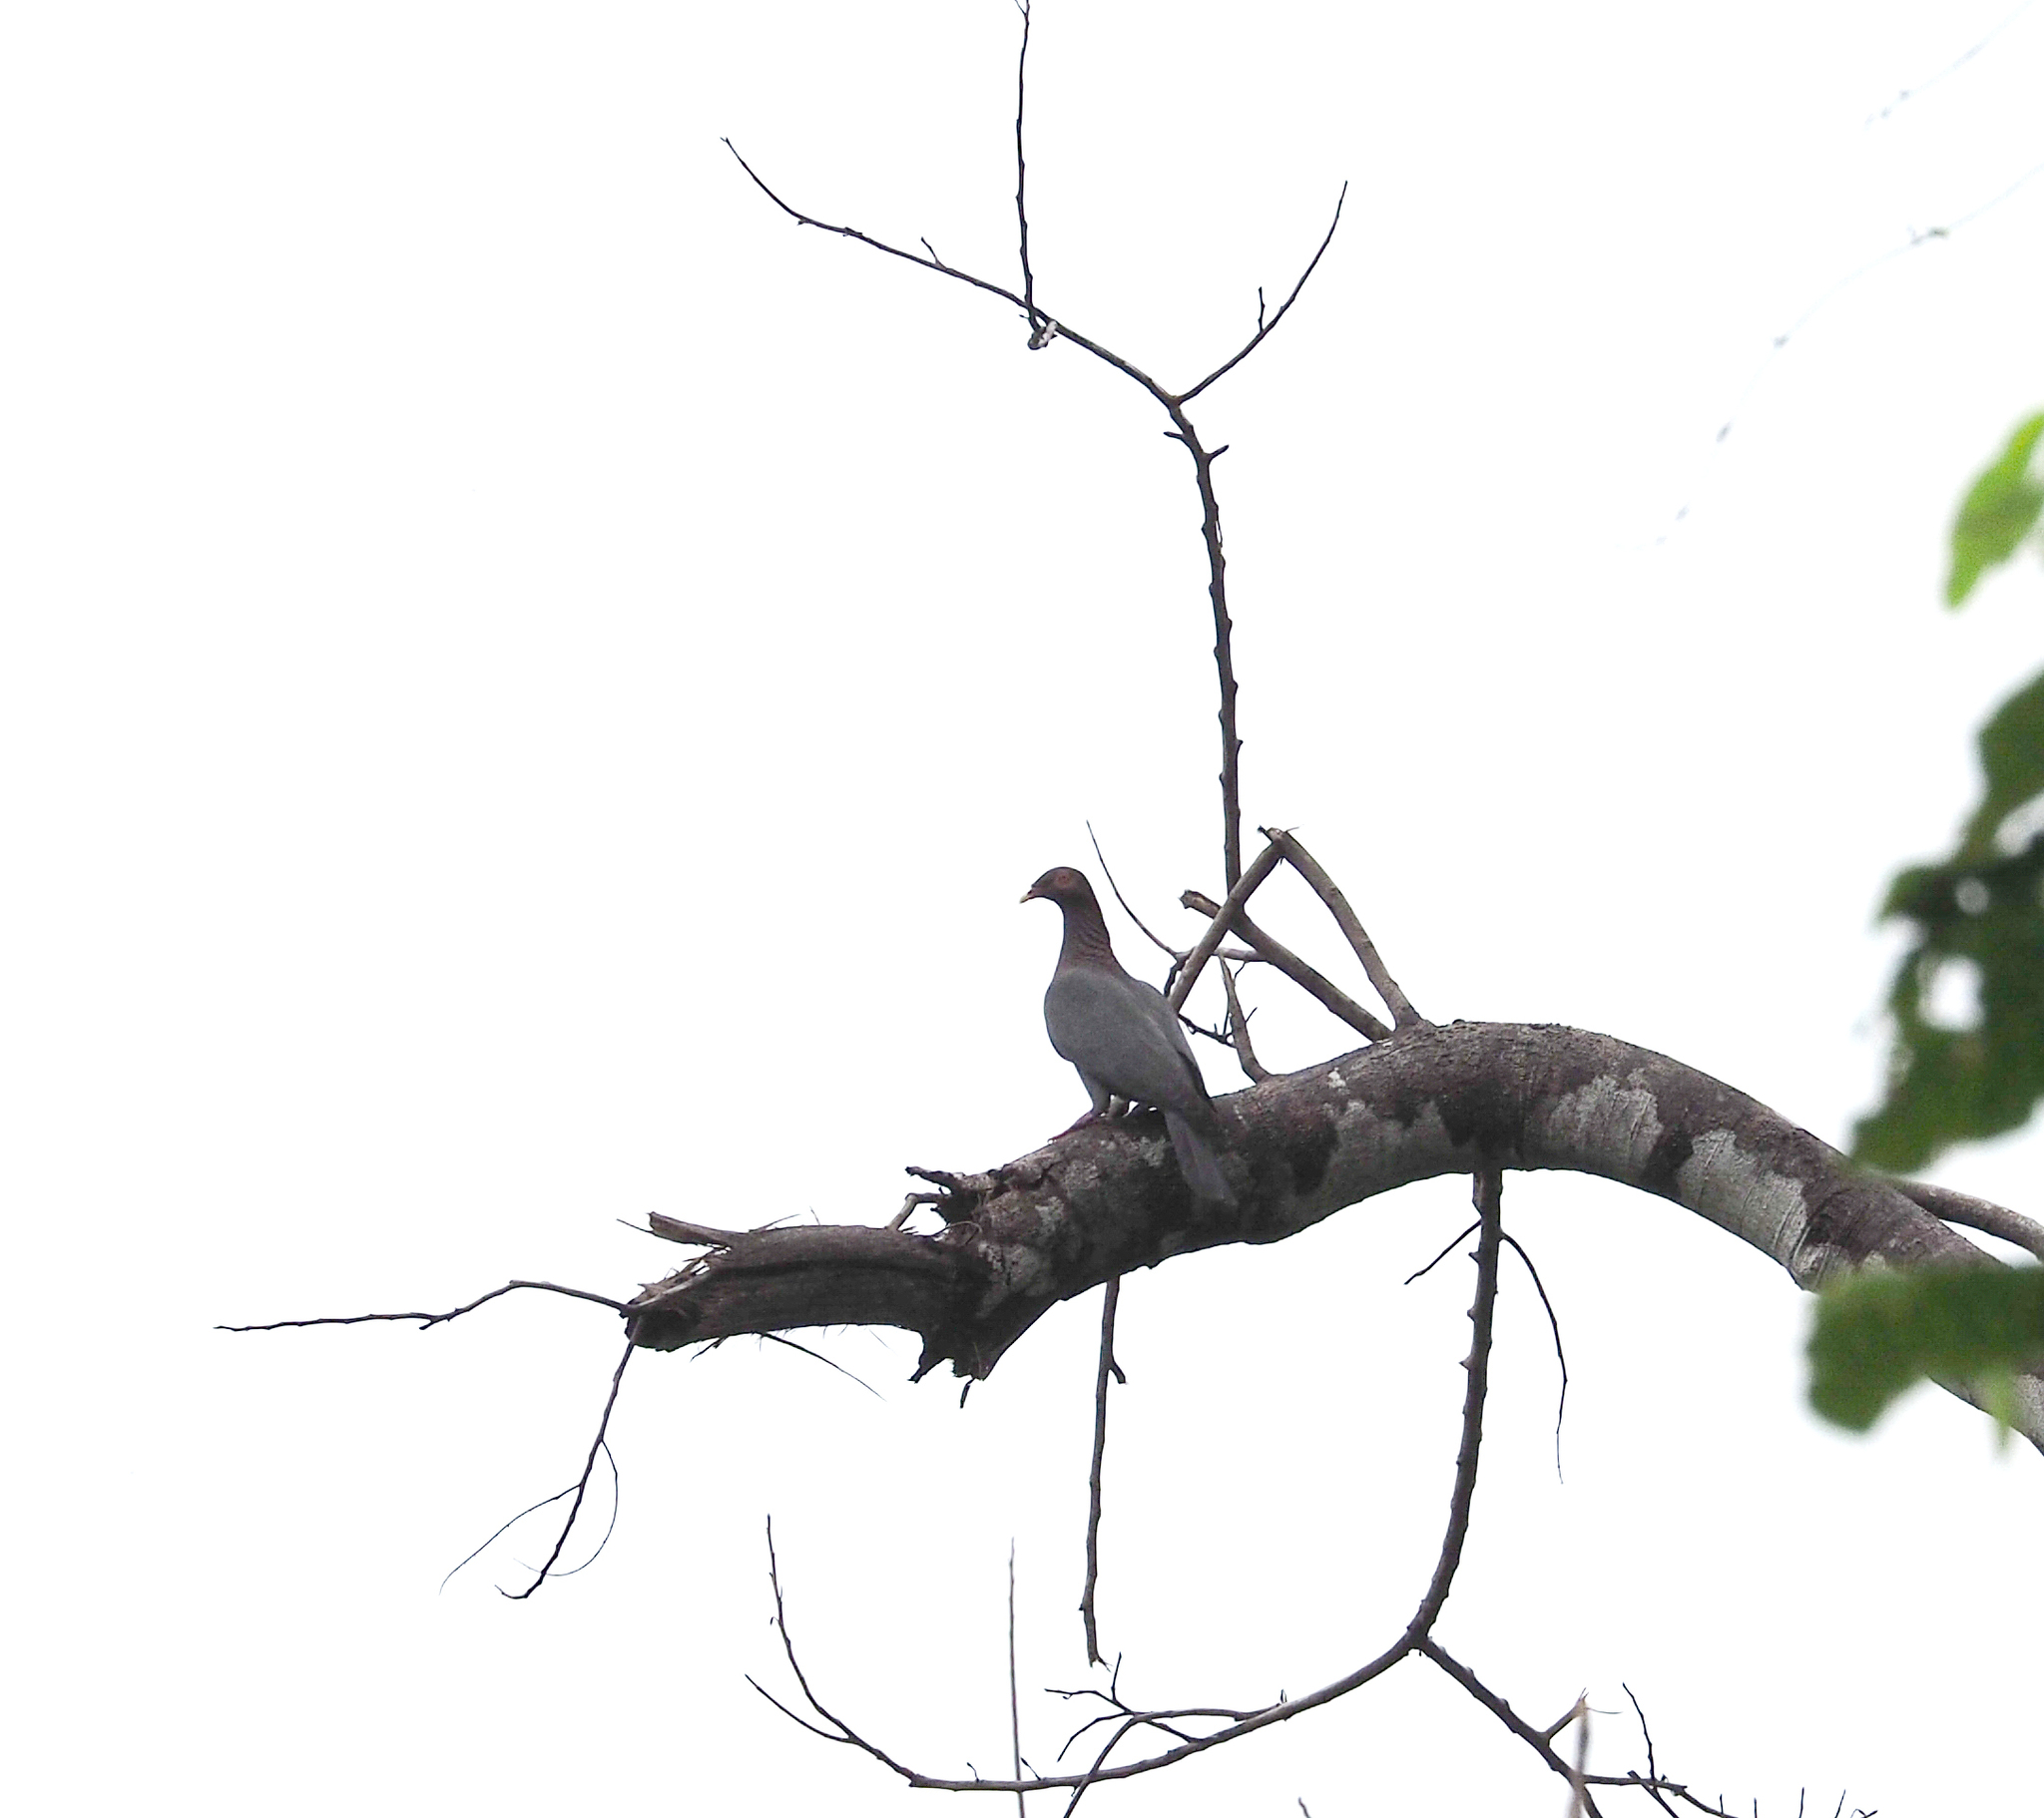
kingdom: Animalia
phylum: Chordata
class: Aves
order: Columbiformes
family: Columbidae
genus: Patagioenas
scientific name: Patagioenas squamosa
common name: Scaly-naped pigeon
